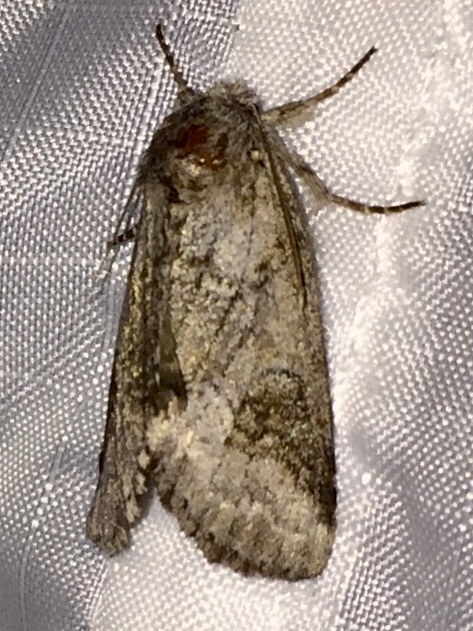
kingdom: Animalia
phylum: Arthropoda
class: Insecta
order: Lepidoptera
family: Notodontidae
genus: Lochmaeus
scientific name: Lochmaeus bilineata
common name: Double-lined prominent
